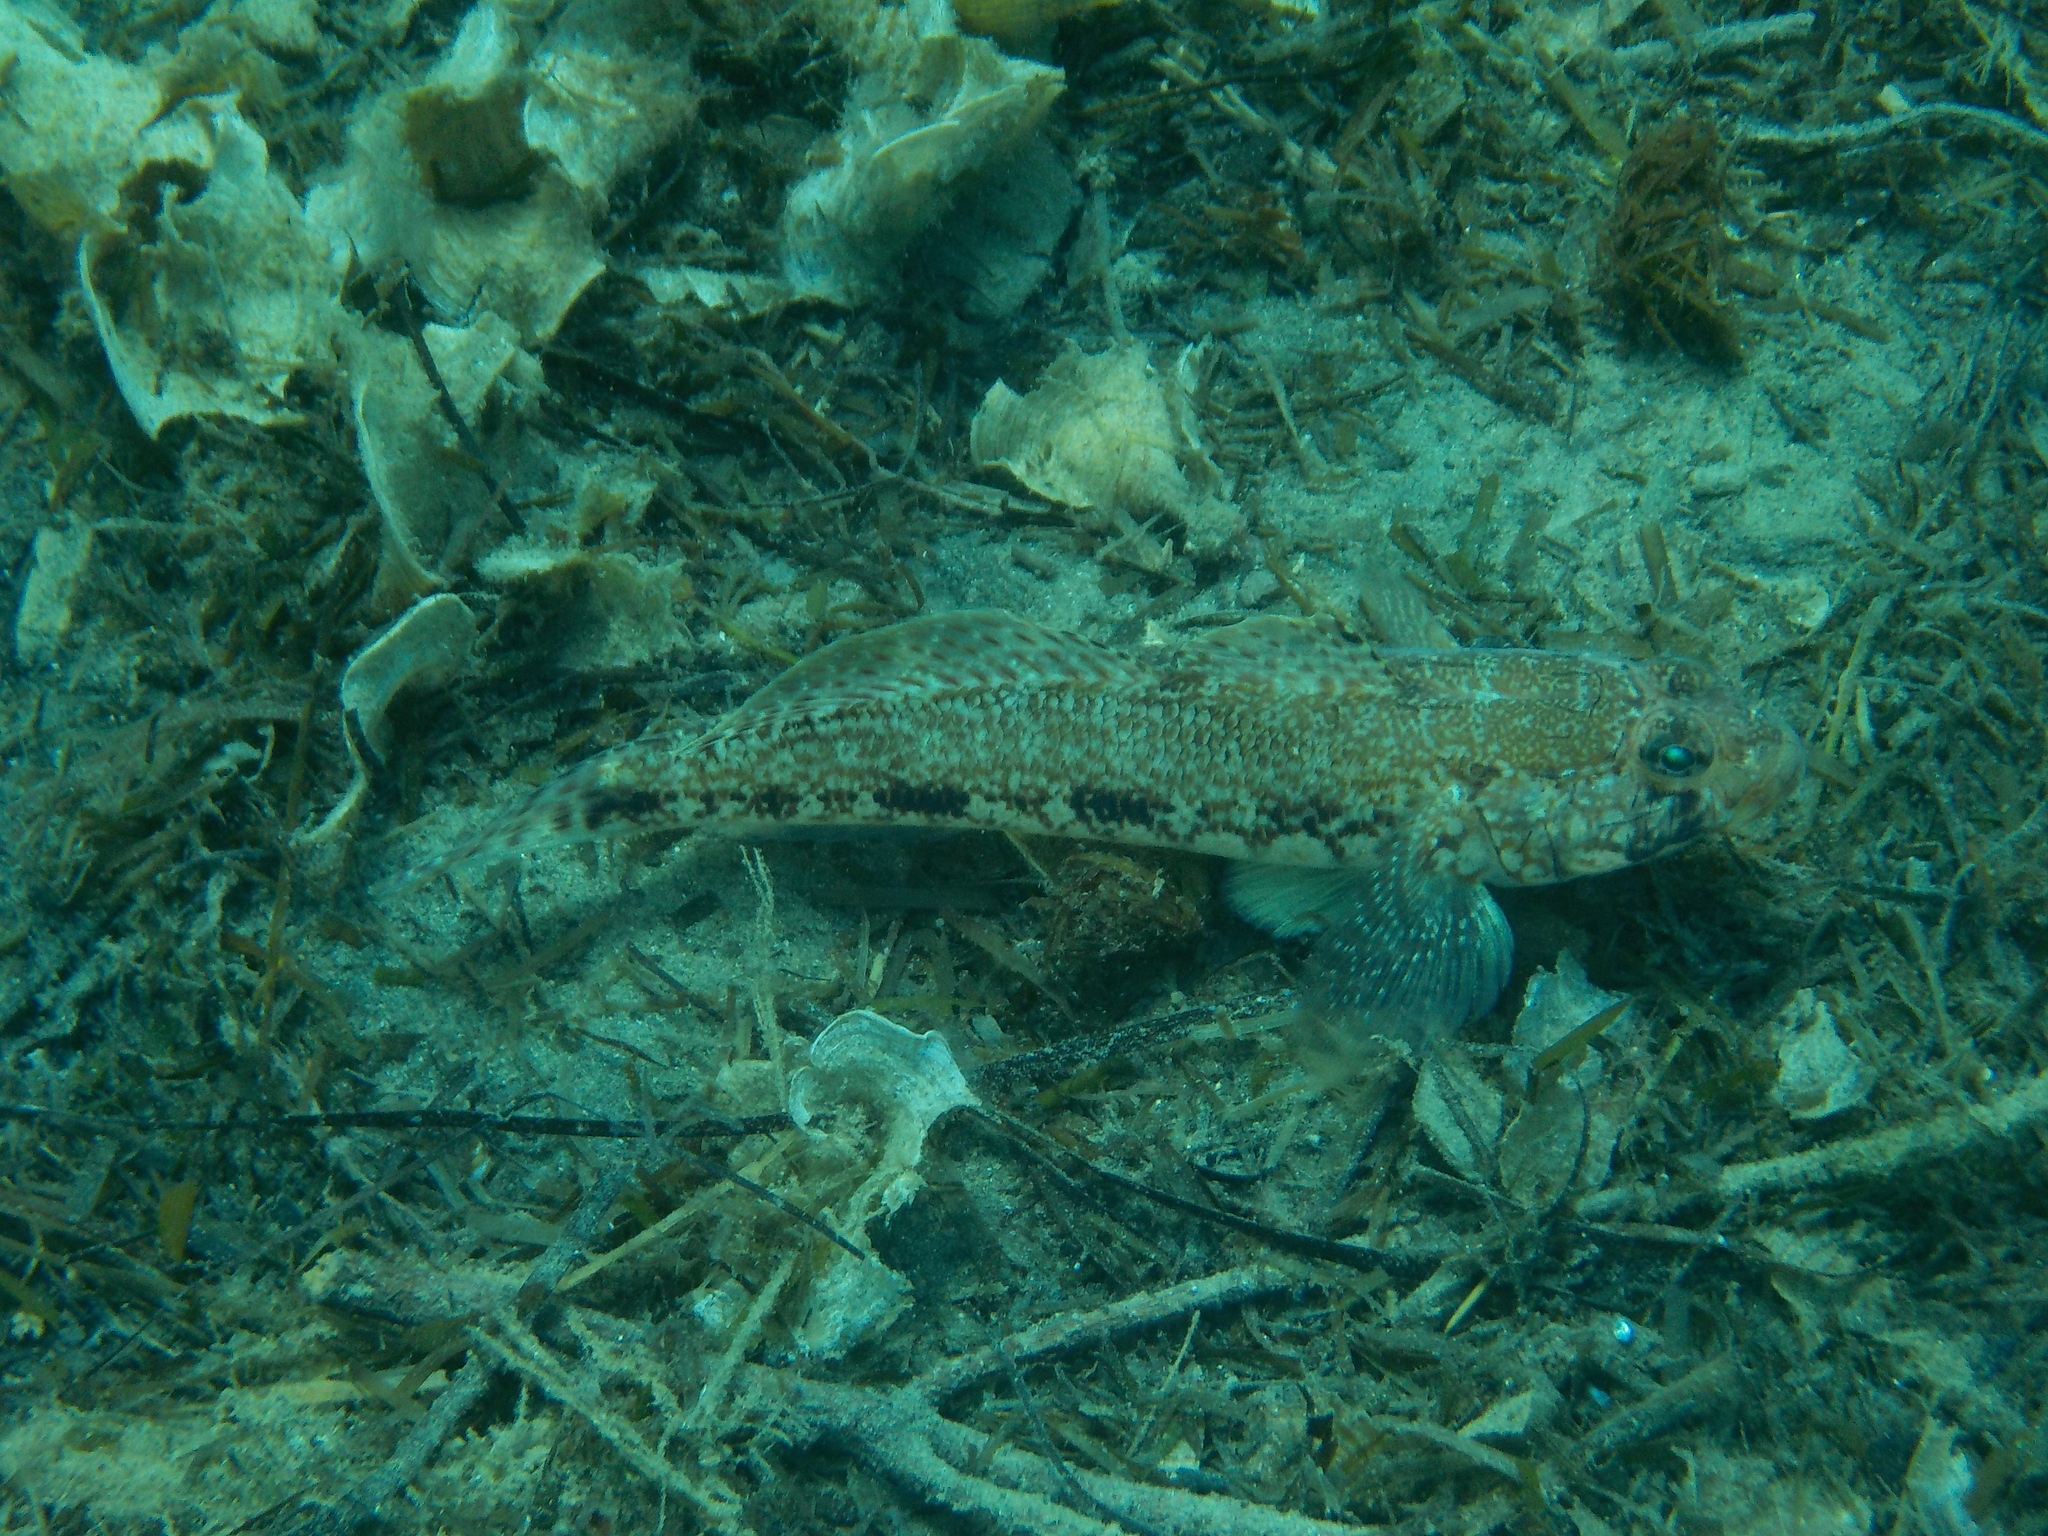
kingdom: Animalia
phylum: Chordata
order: Perciformes
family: Gobiidae
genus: Gobius
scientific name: Gobius geniporus
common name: Slender goby
